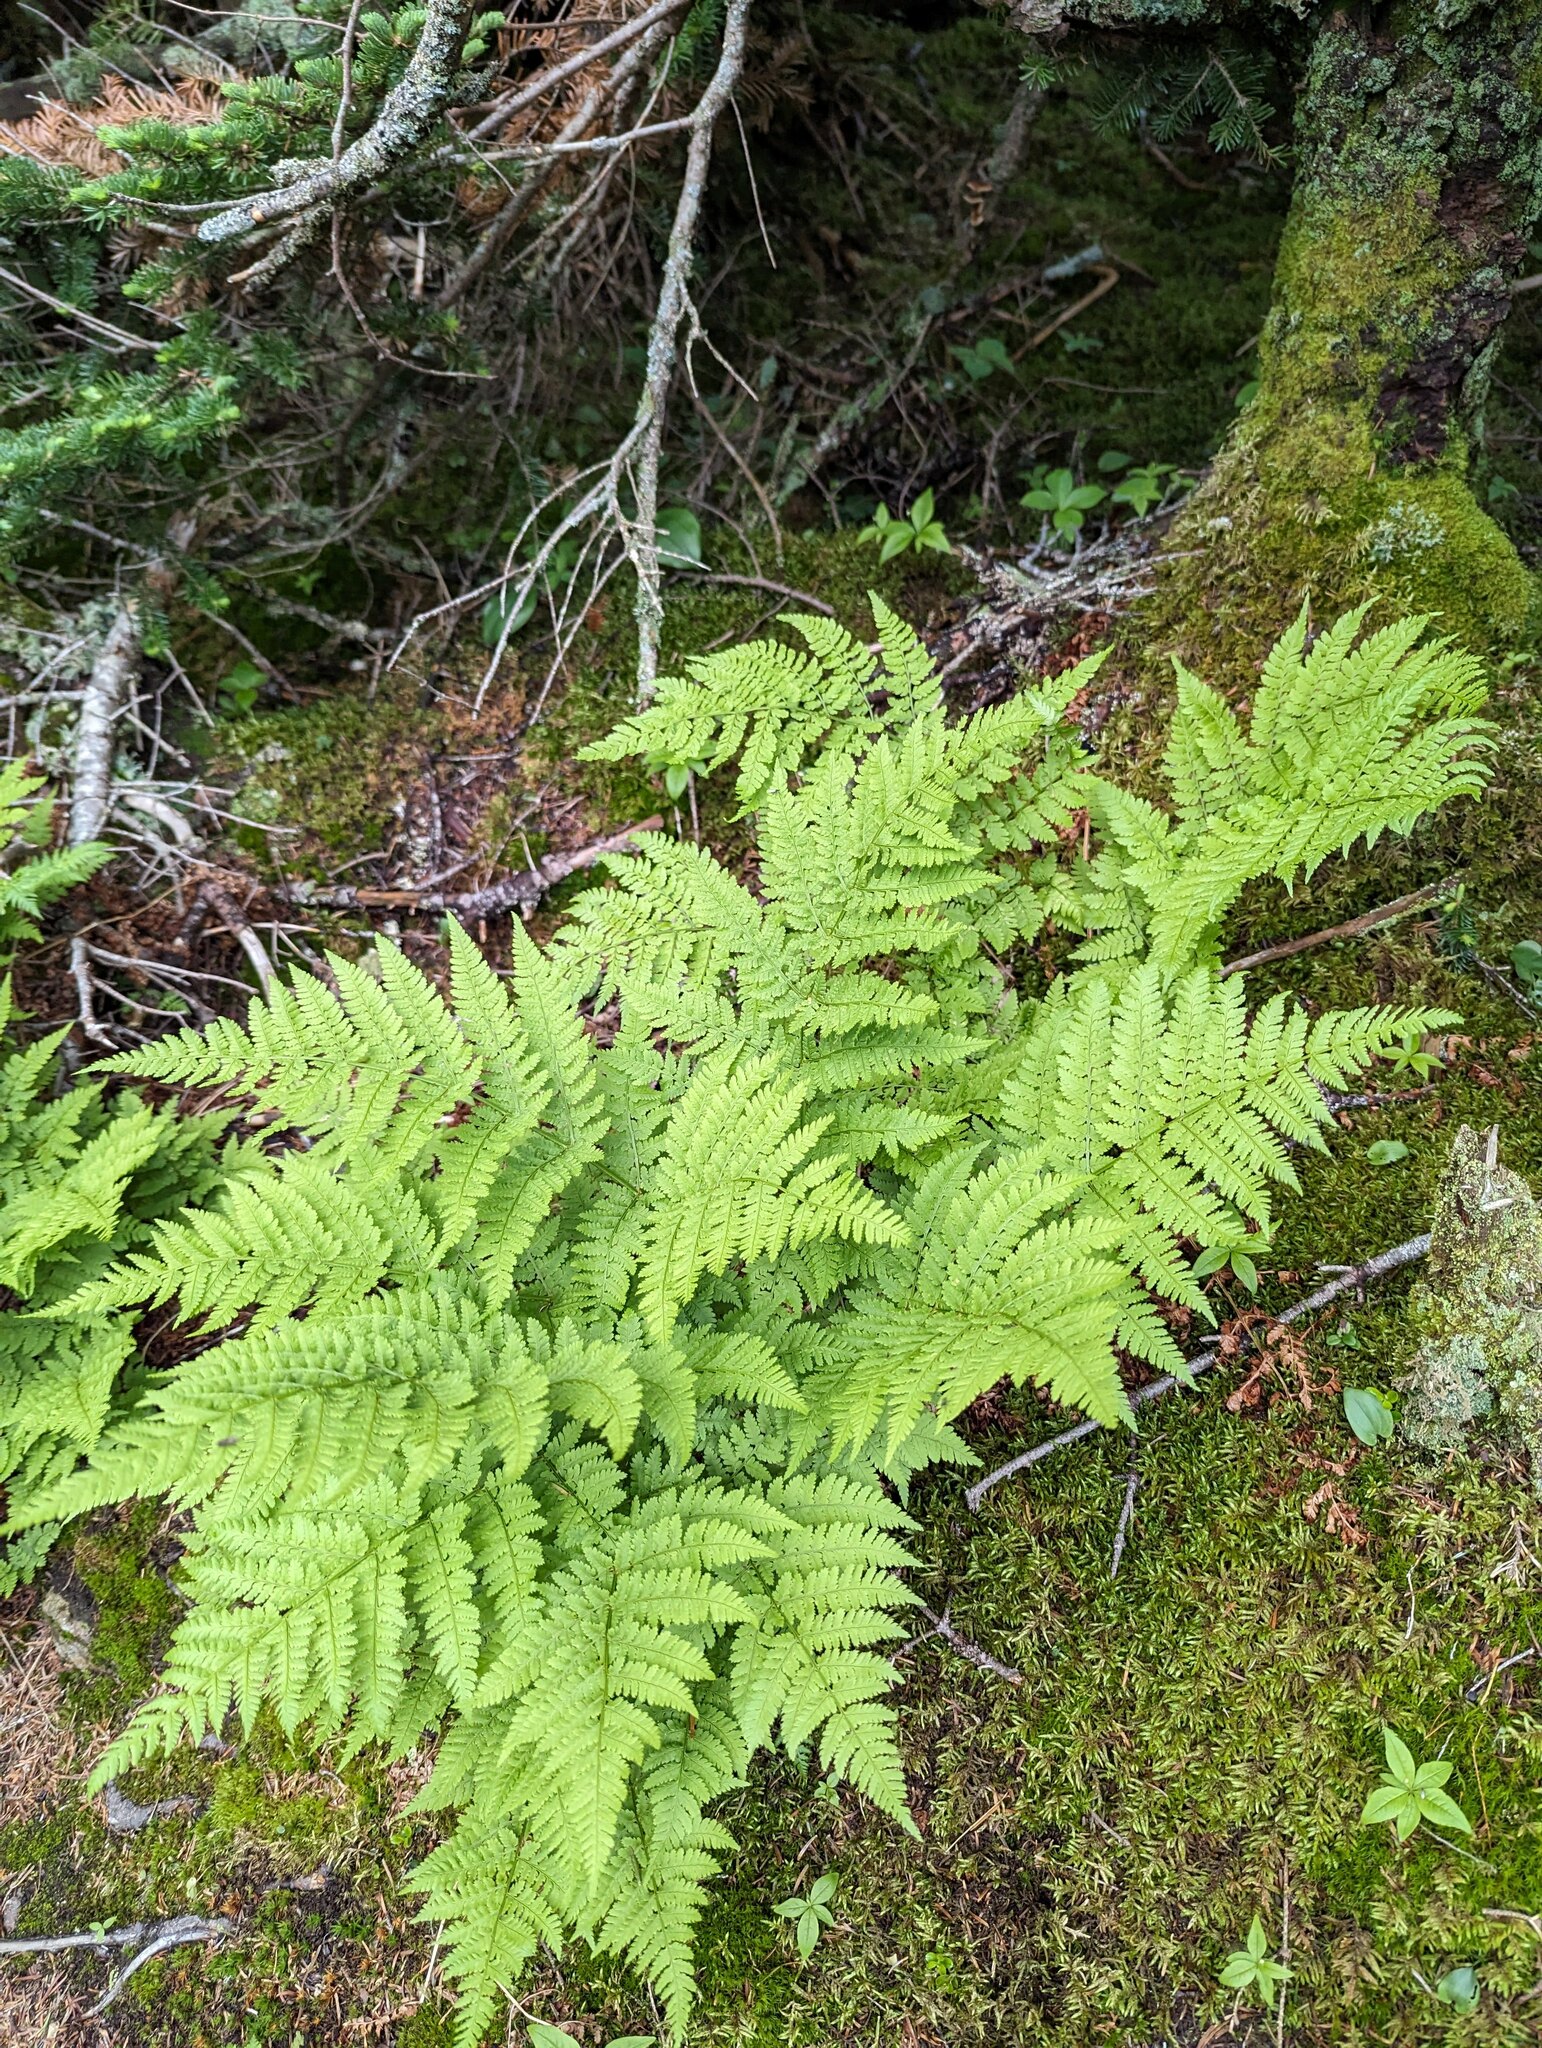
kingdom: Plantae
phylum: Tracheophyta
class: Polypodiopsida
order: Polypodiales
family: Dryopteridaceae
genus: Dryopteris
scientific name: Dryopteris campyloptera
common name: Mountain wood fern
